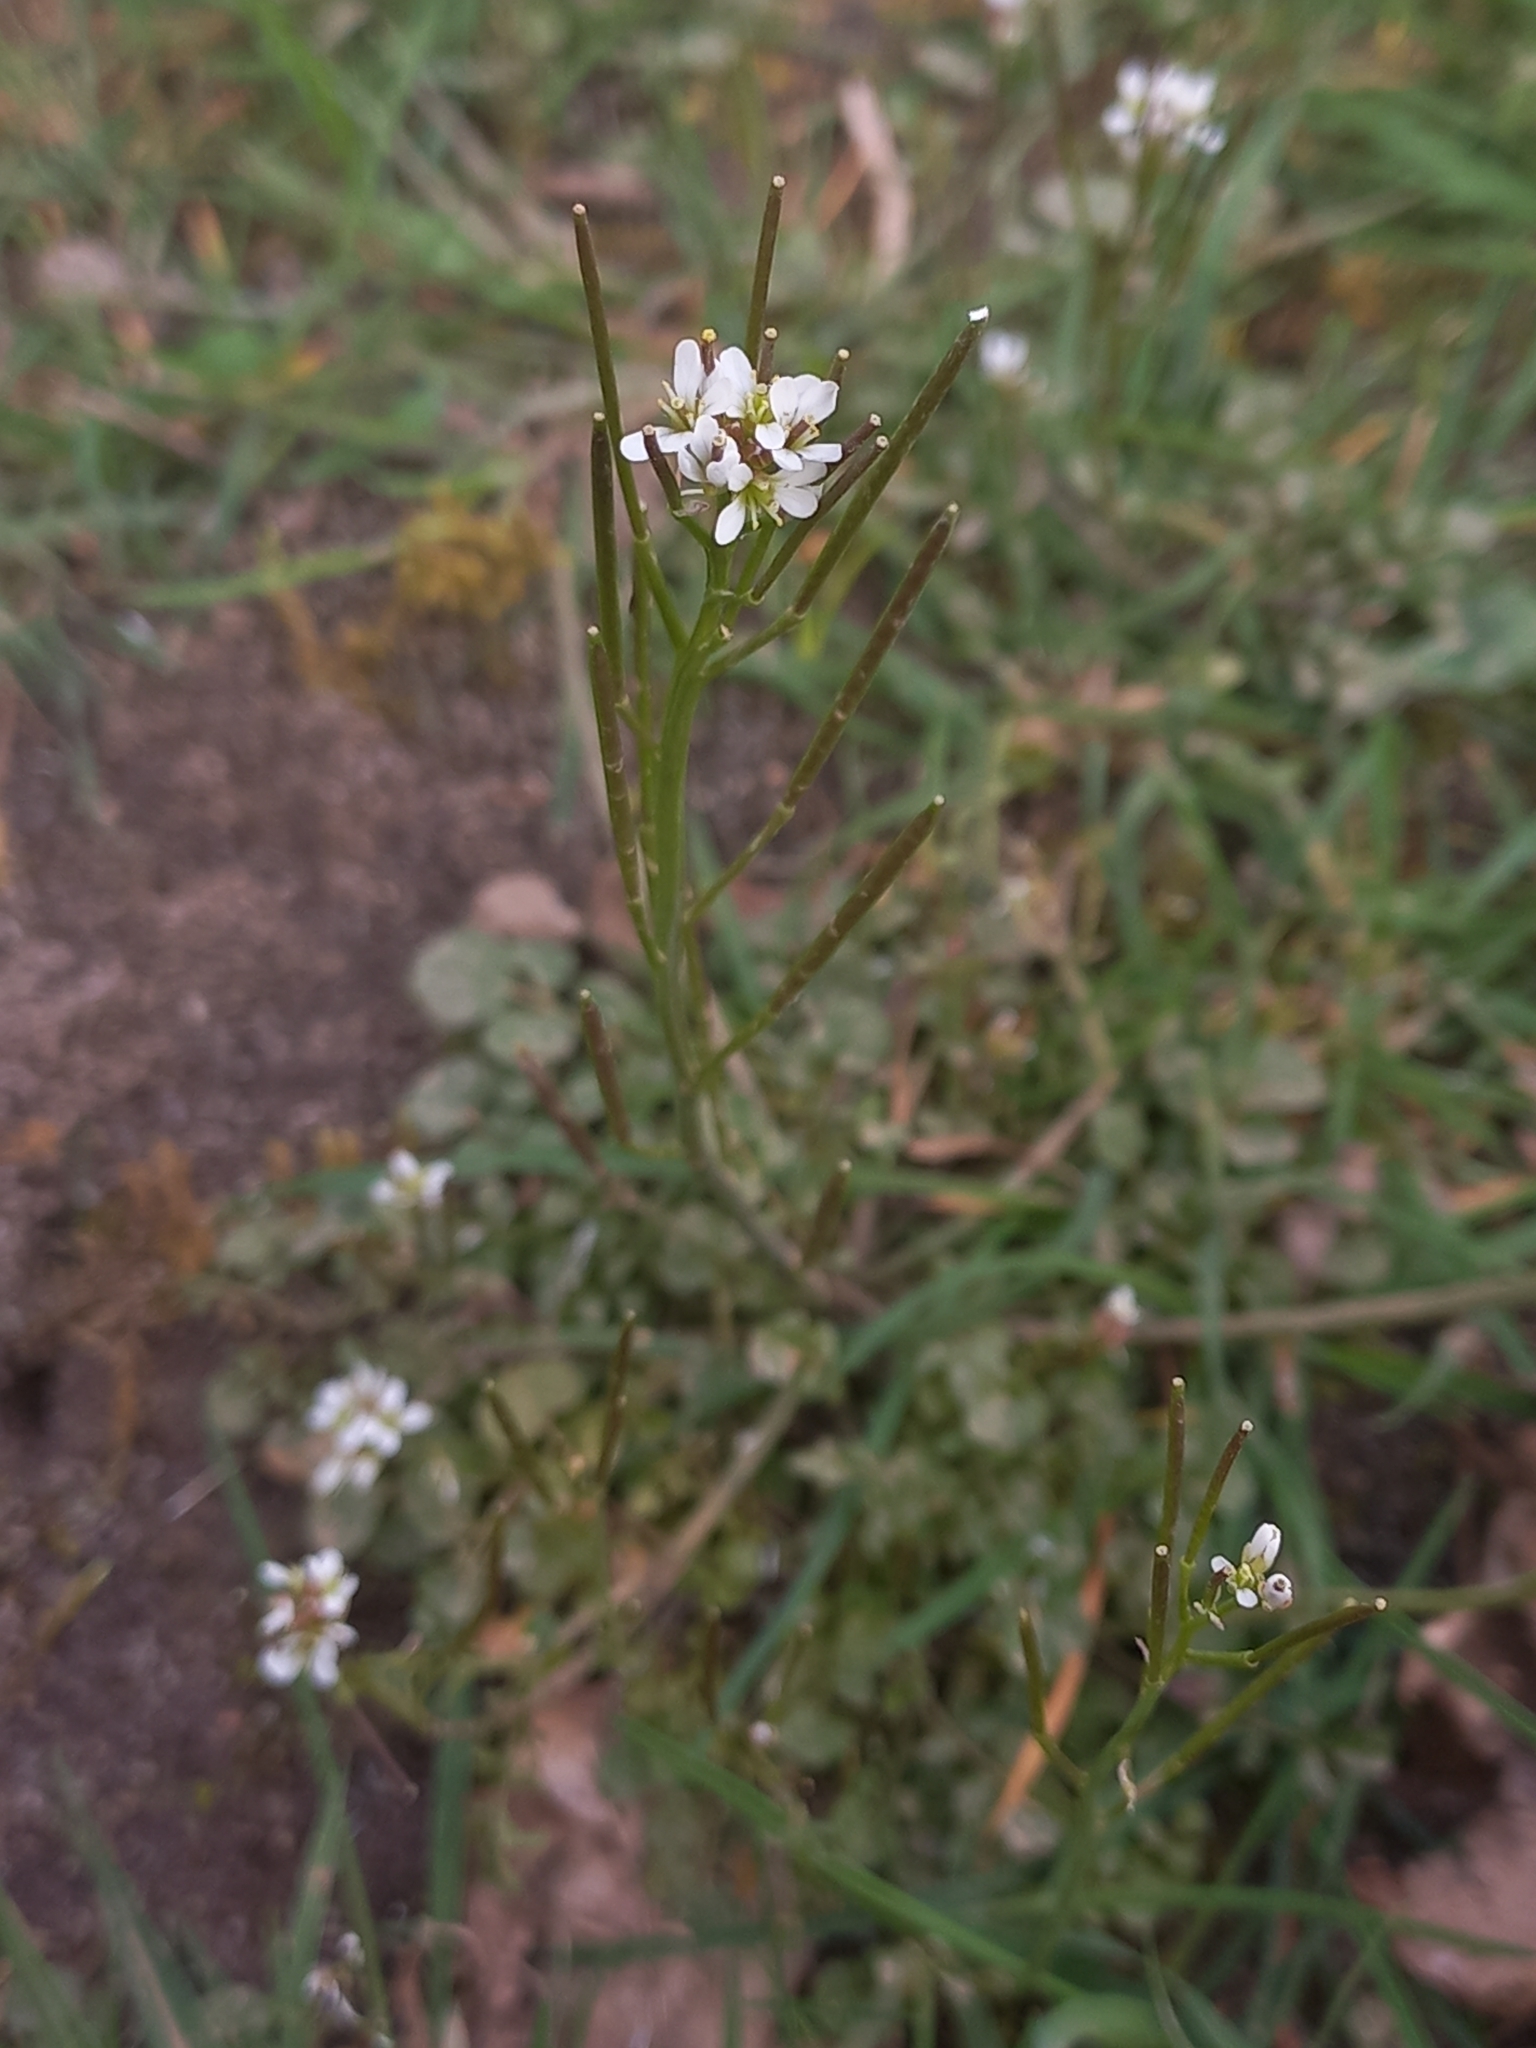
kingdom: Plantae
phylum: Tracheophyta
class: Magnoliopsida
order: Brassicales
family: Brassicaceae
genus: Cardamine
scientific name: Cardamine hirsuta
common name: Hairy bittercress
